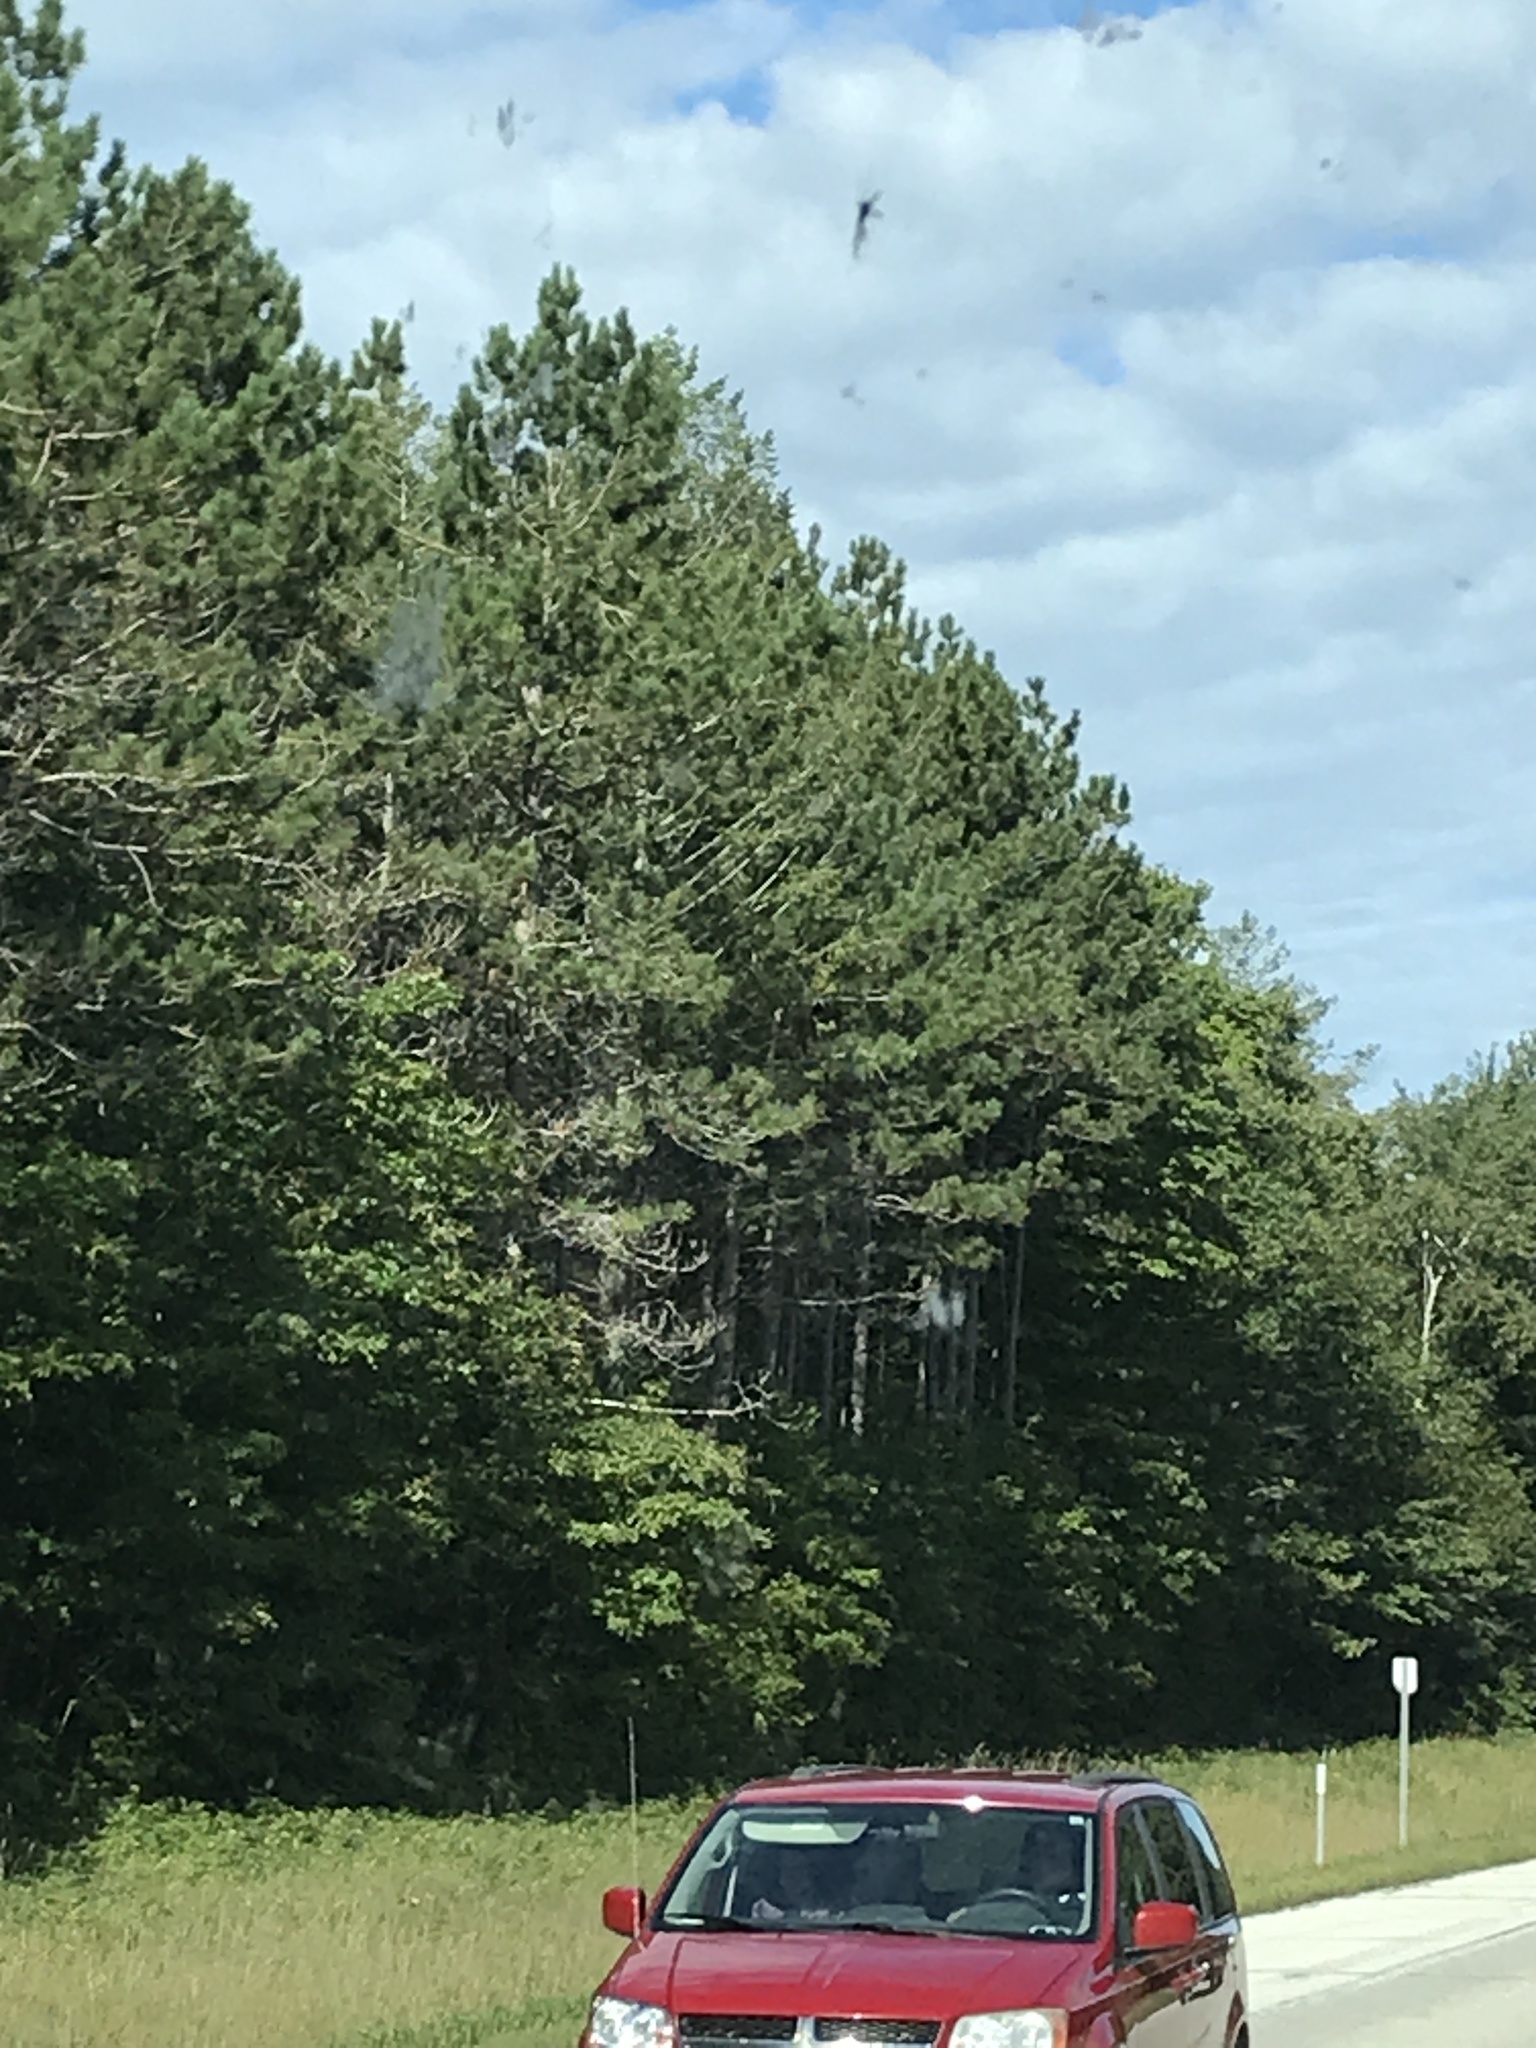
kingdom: Plantae
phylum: Tracheophyta
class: Pinopsida
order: Pinales
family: Pinaceae
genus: Pinus
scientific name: Pinus strobus
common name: Weymouth pine
